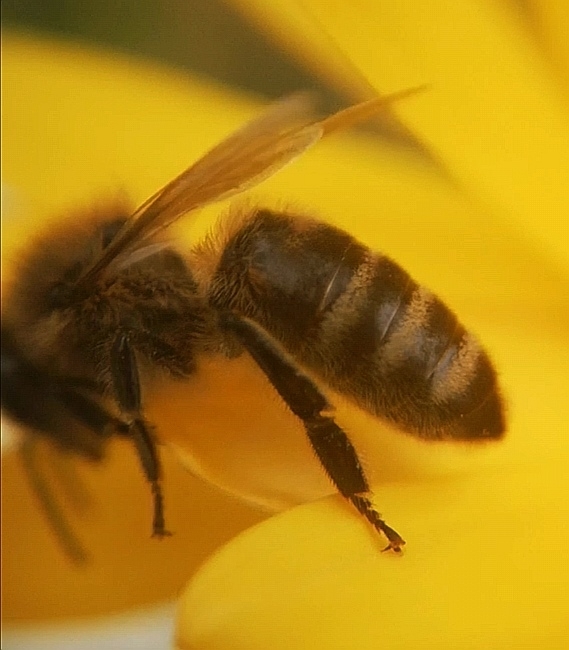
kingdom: Animalia
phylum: Arthropoda
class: Insecta
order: Hymenoptera
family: Apidae
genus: Apis
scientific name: Apis mellifera
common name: Honey bee
